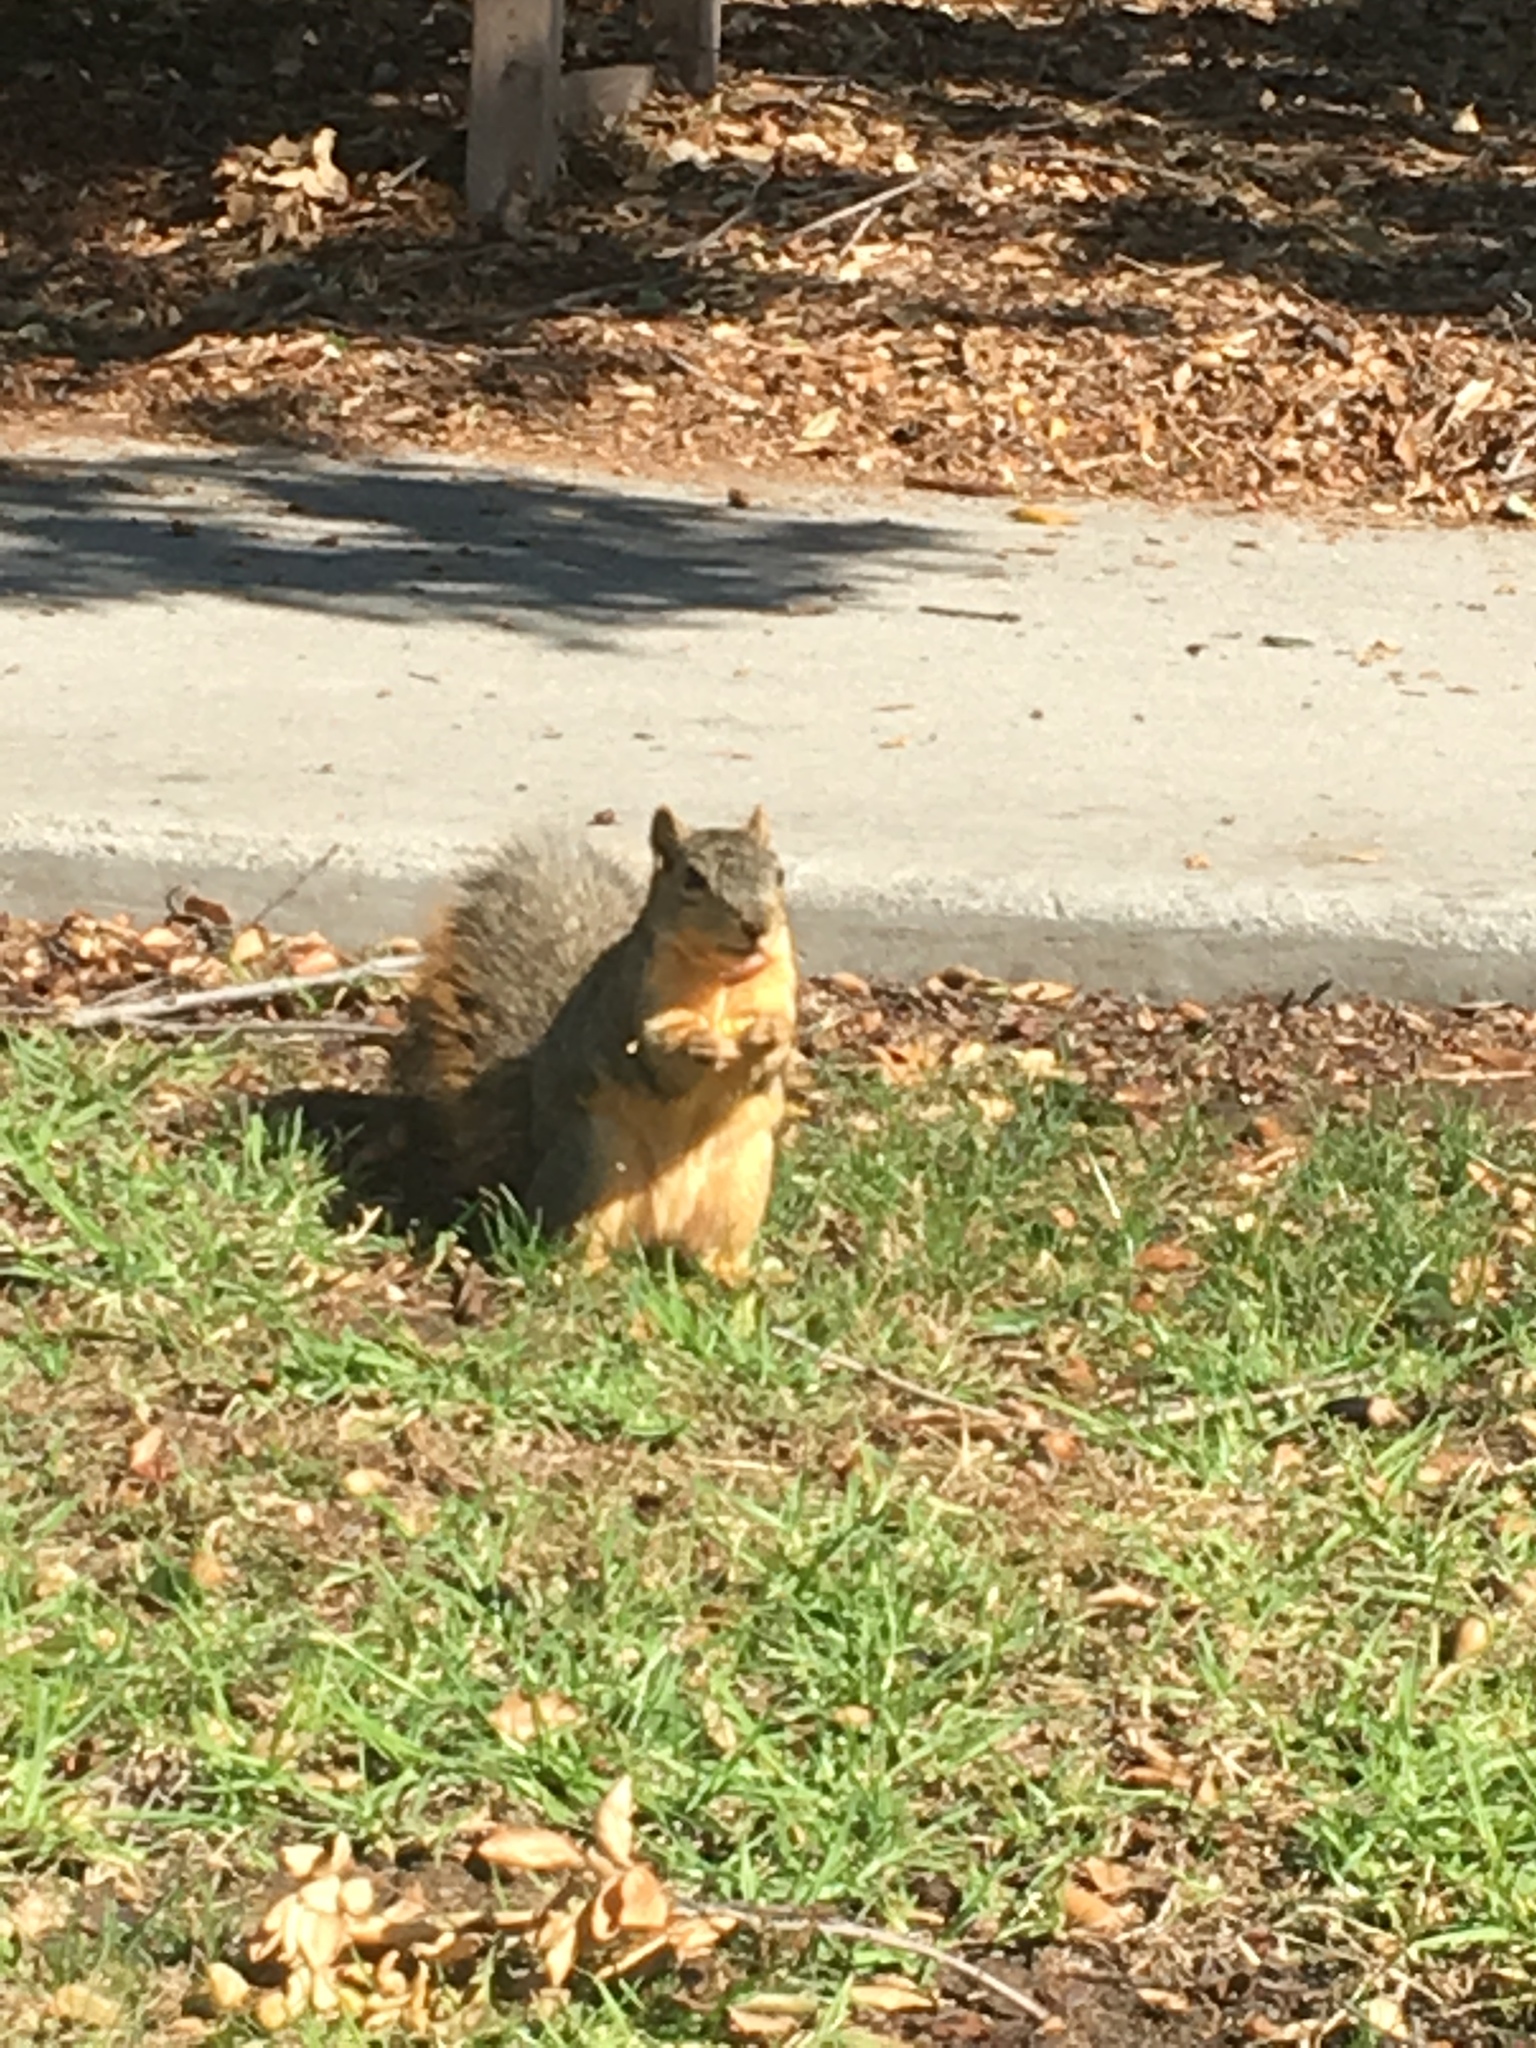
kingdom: Animalia
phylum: Chordata
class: Mammalia
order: Rodentia
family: Sciuridae
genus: Sciurus
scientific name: Sciurus niger
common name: Fox squirrel
